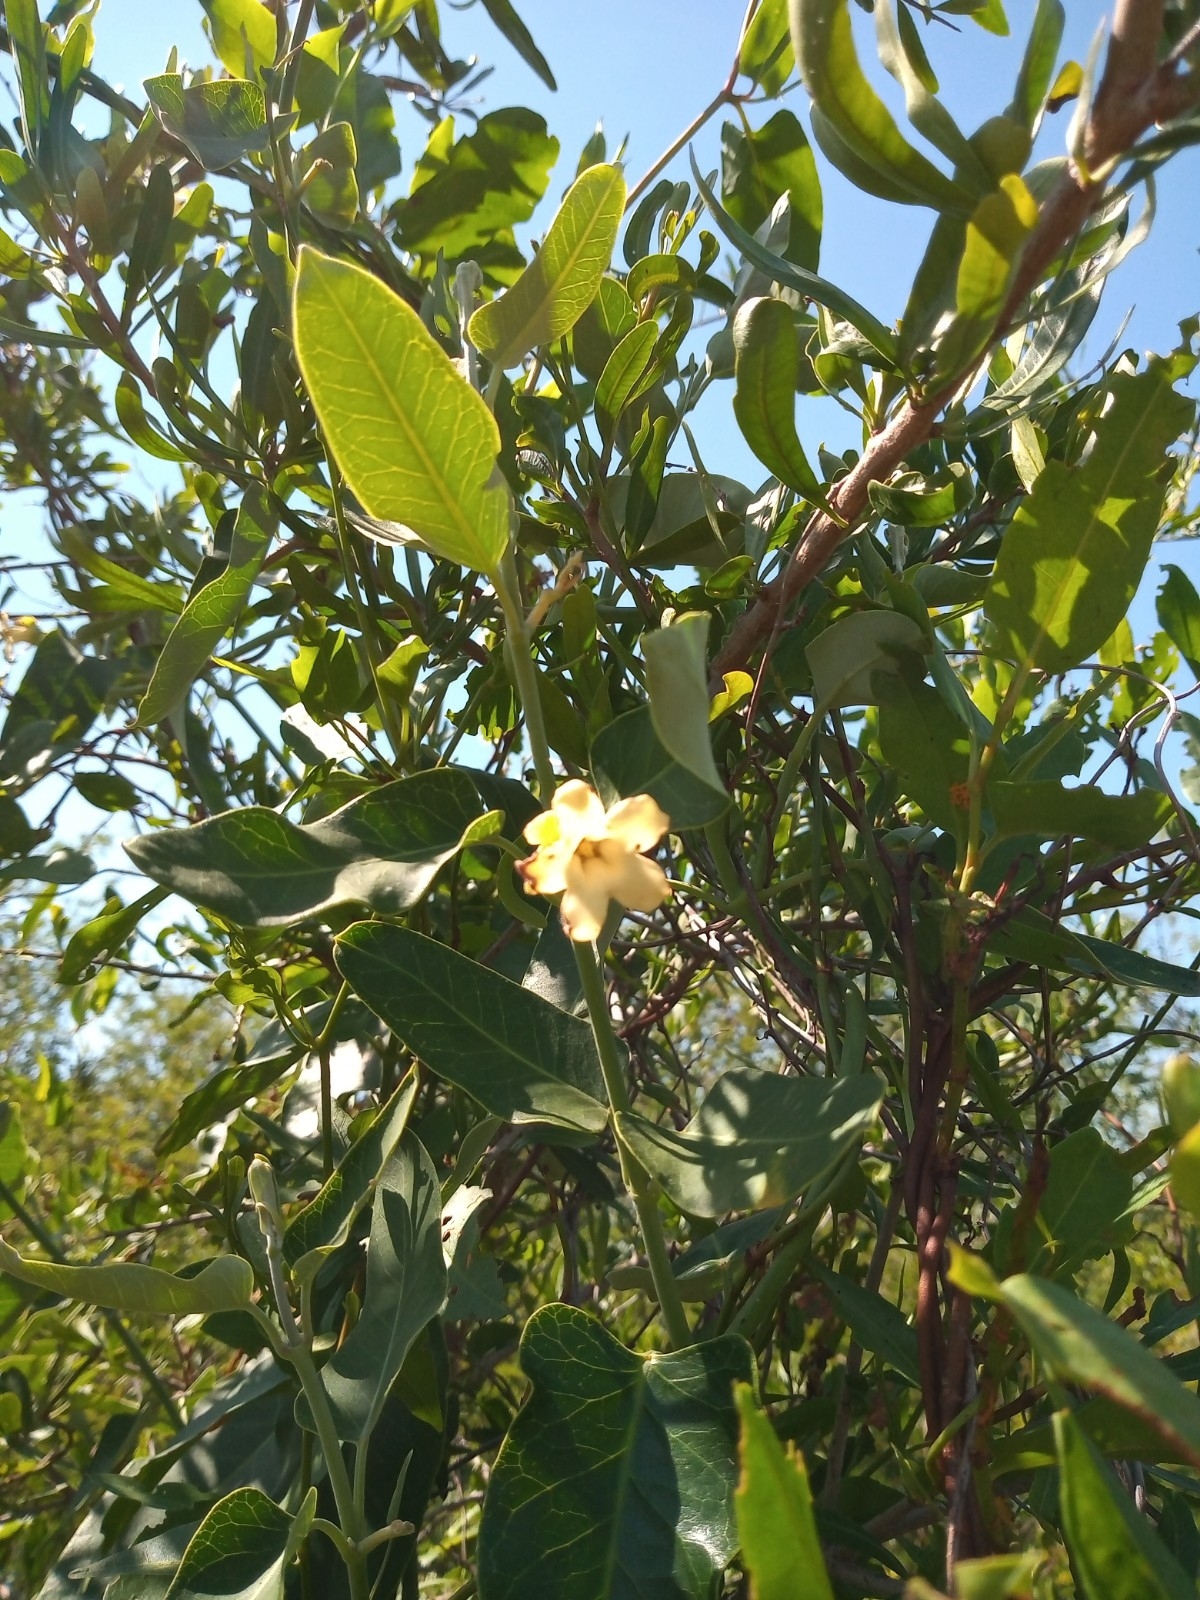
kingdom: Plantae
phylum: Tracheophyta
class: Magnoliopsida
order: Gentianales
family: Apocynaceae
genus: Araujia
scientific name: Araujia sericifera
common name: White bladderflower
